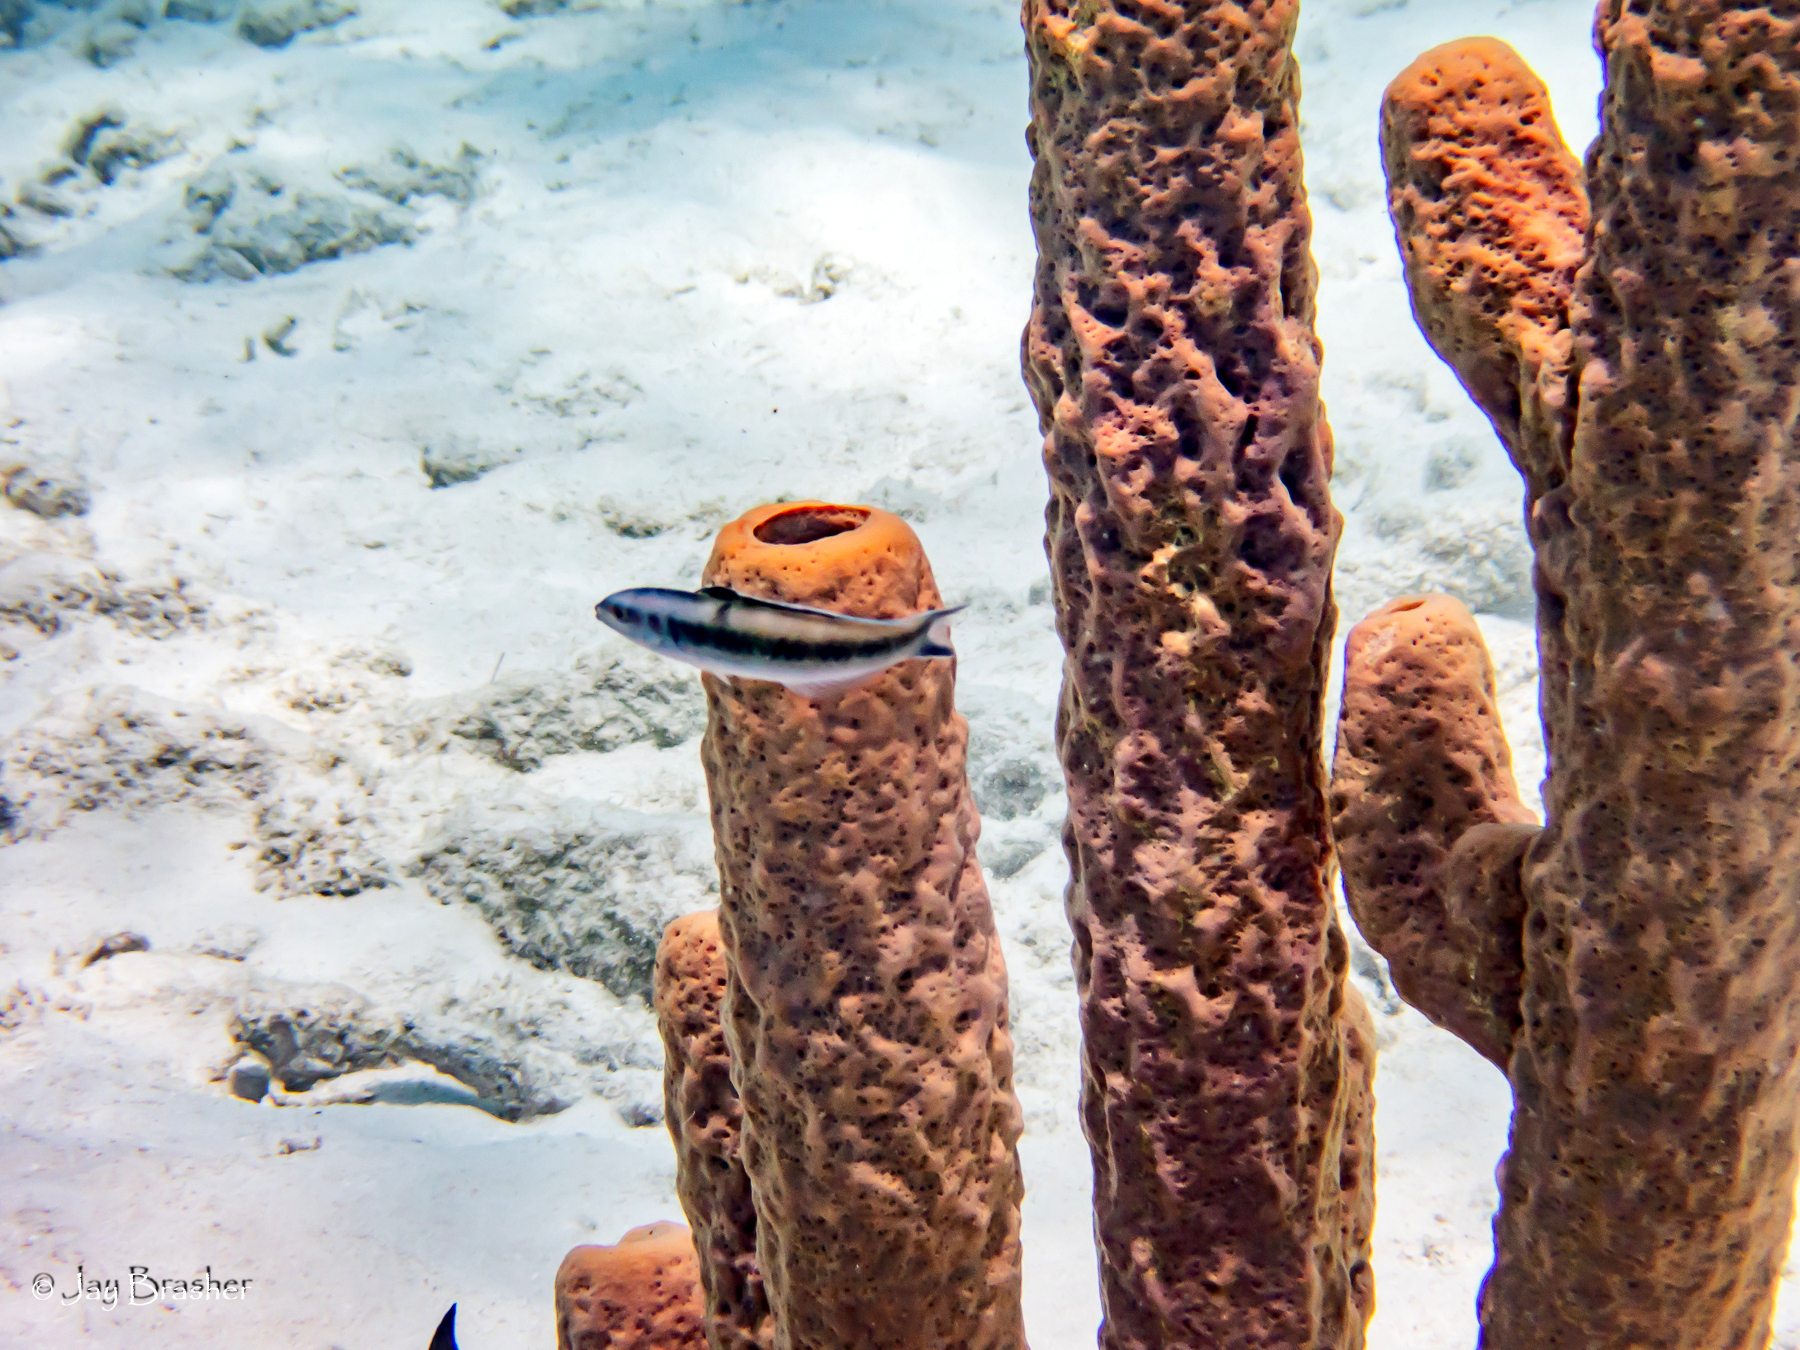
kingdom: Animalia
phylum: Chordata
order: Perciformes
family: Labridae
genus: Thalassoma
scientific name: Thalassoma bifasciatum
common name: Bluehead wrasse
